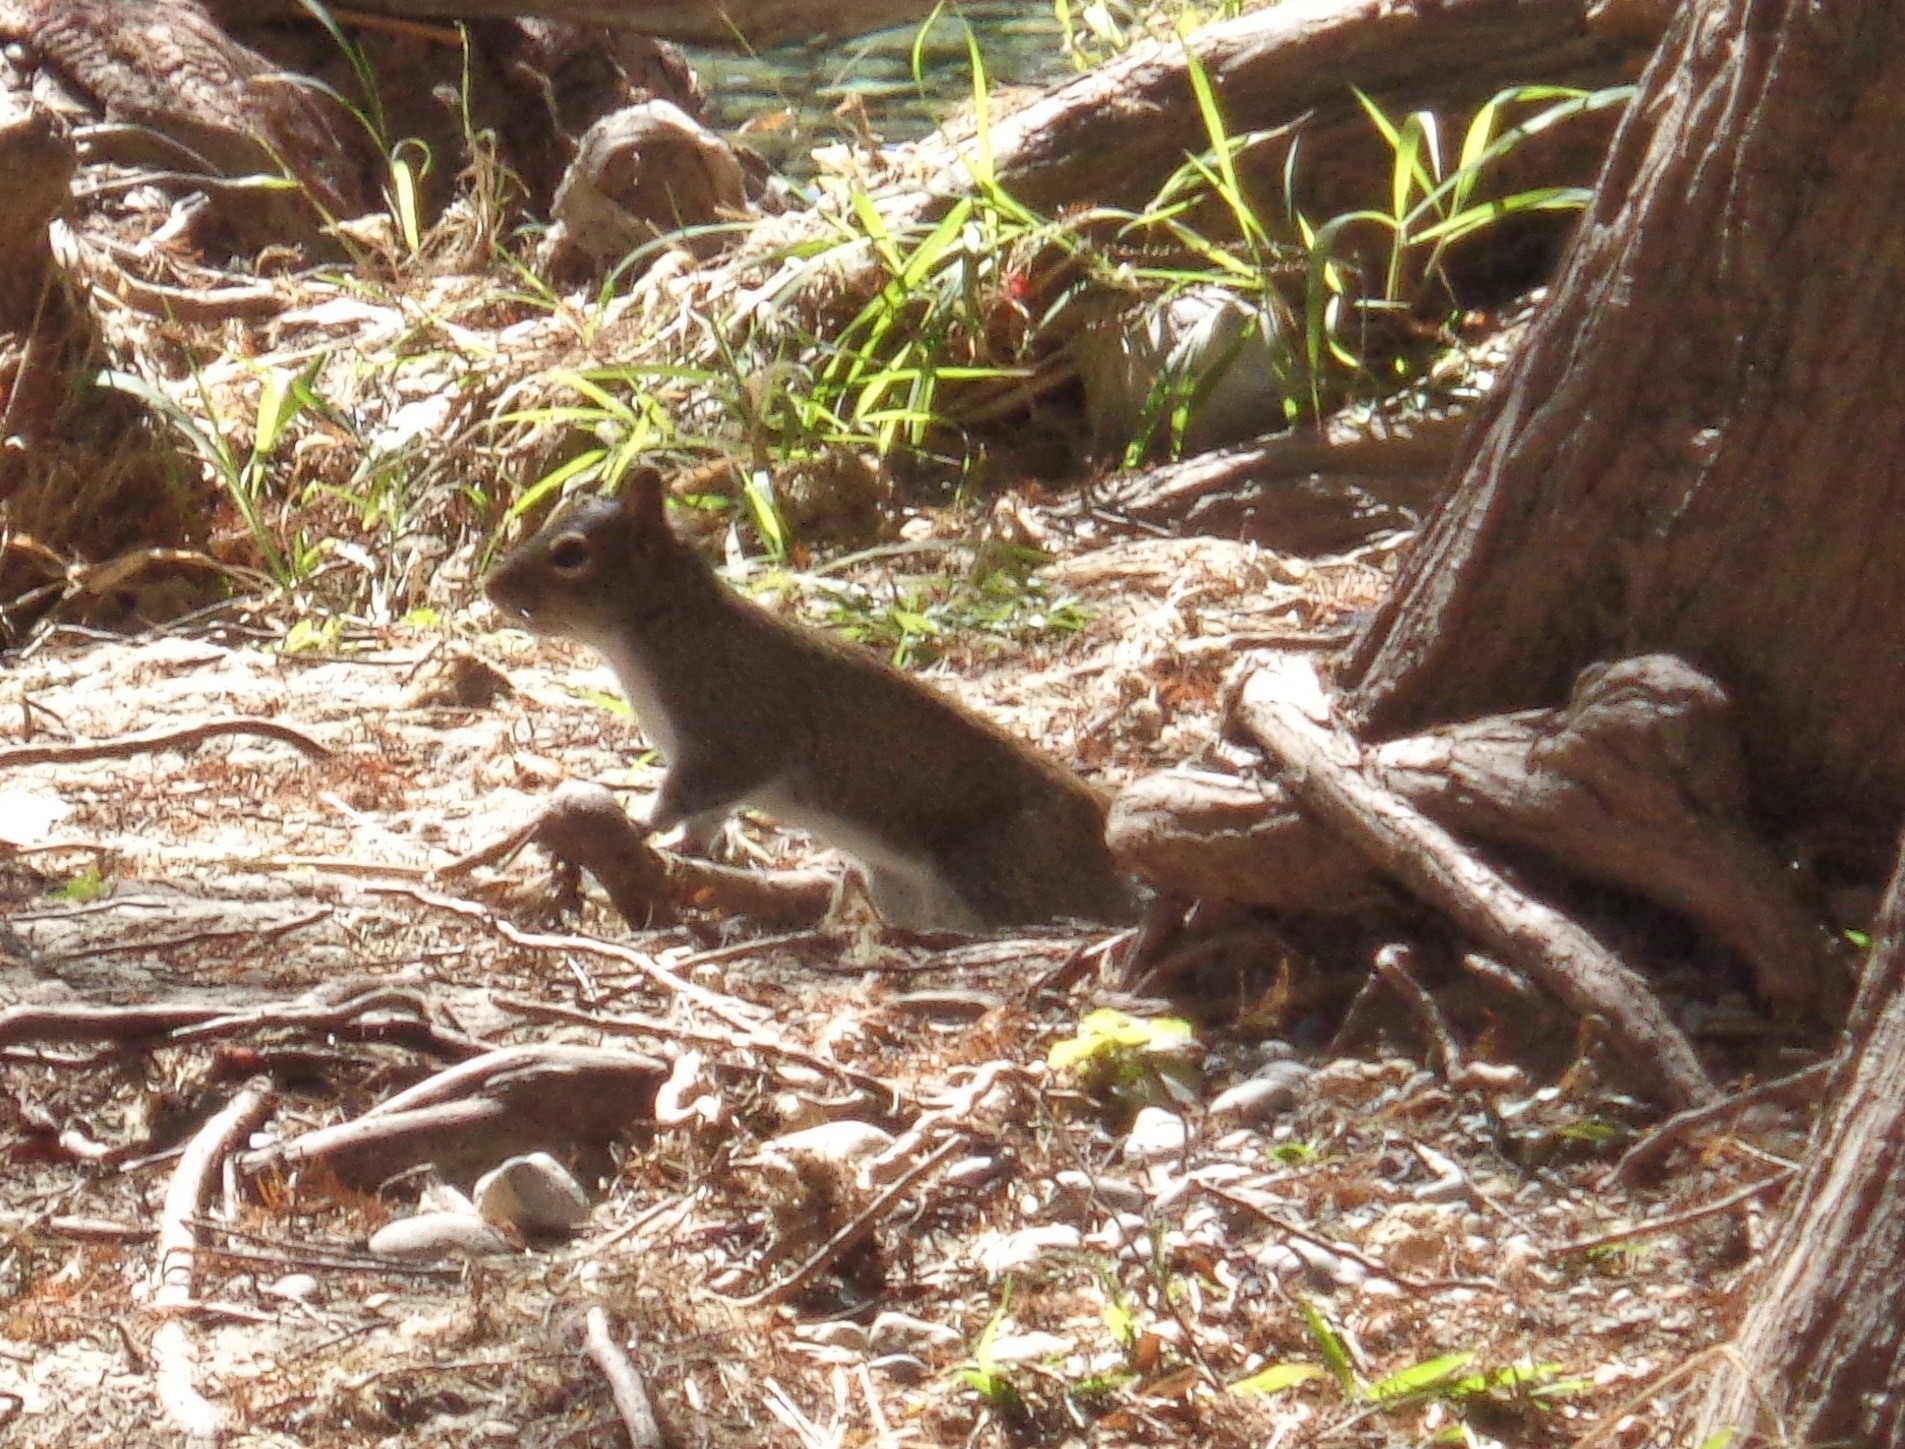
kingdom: Animalia
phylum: Chordata
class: Mammalia
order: Rodentia
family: Sciuridae
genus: Sciurus
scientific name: Sciurus alleni
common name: Allen's squirrel
